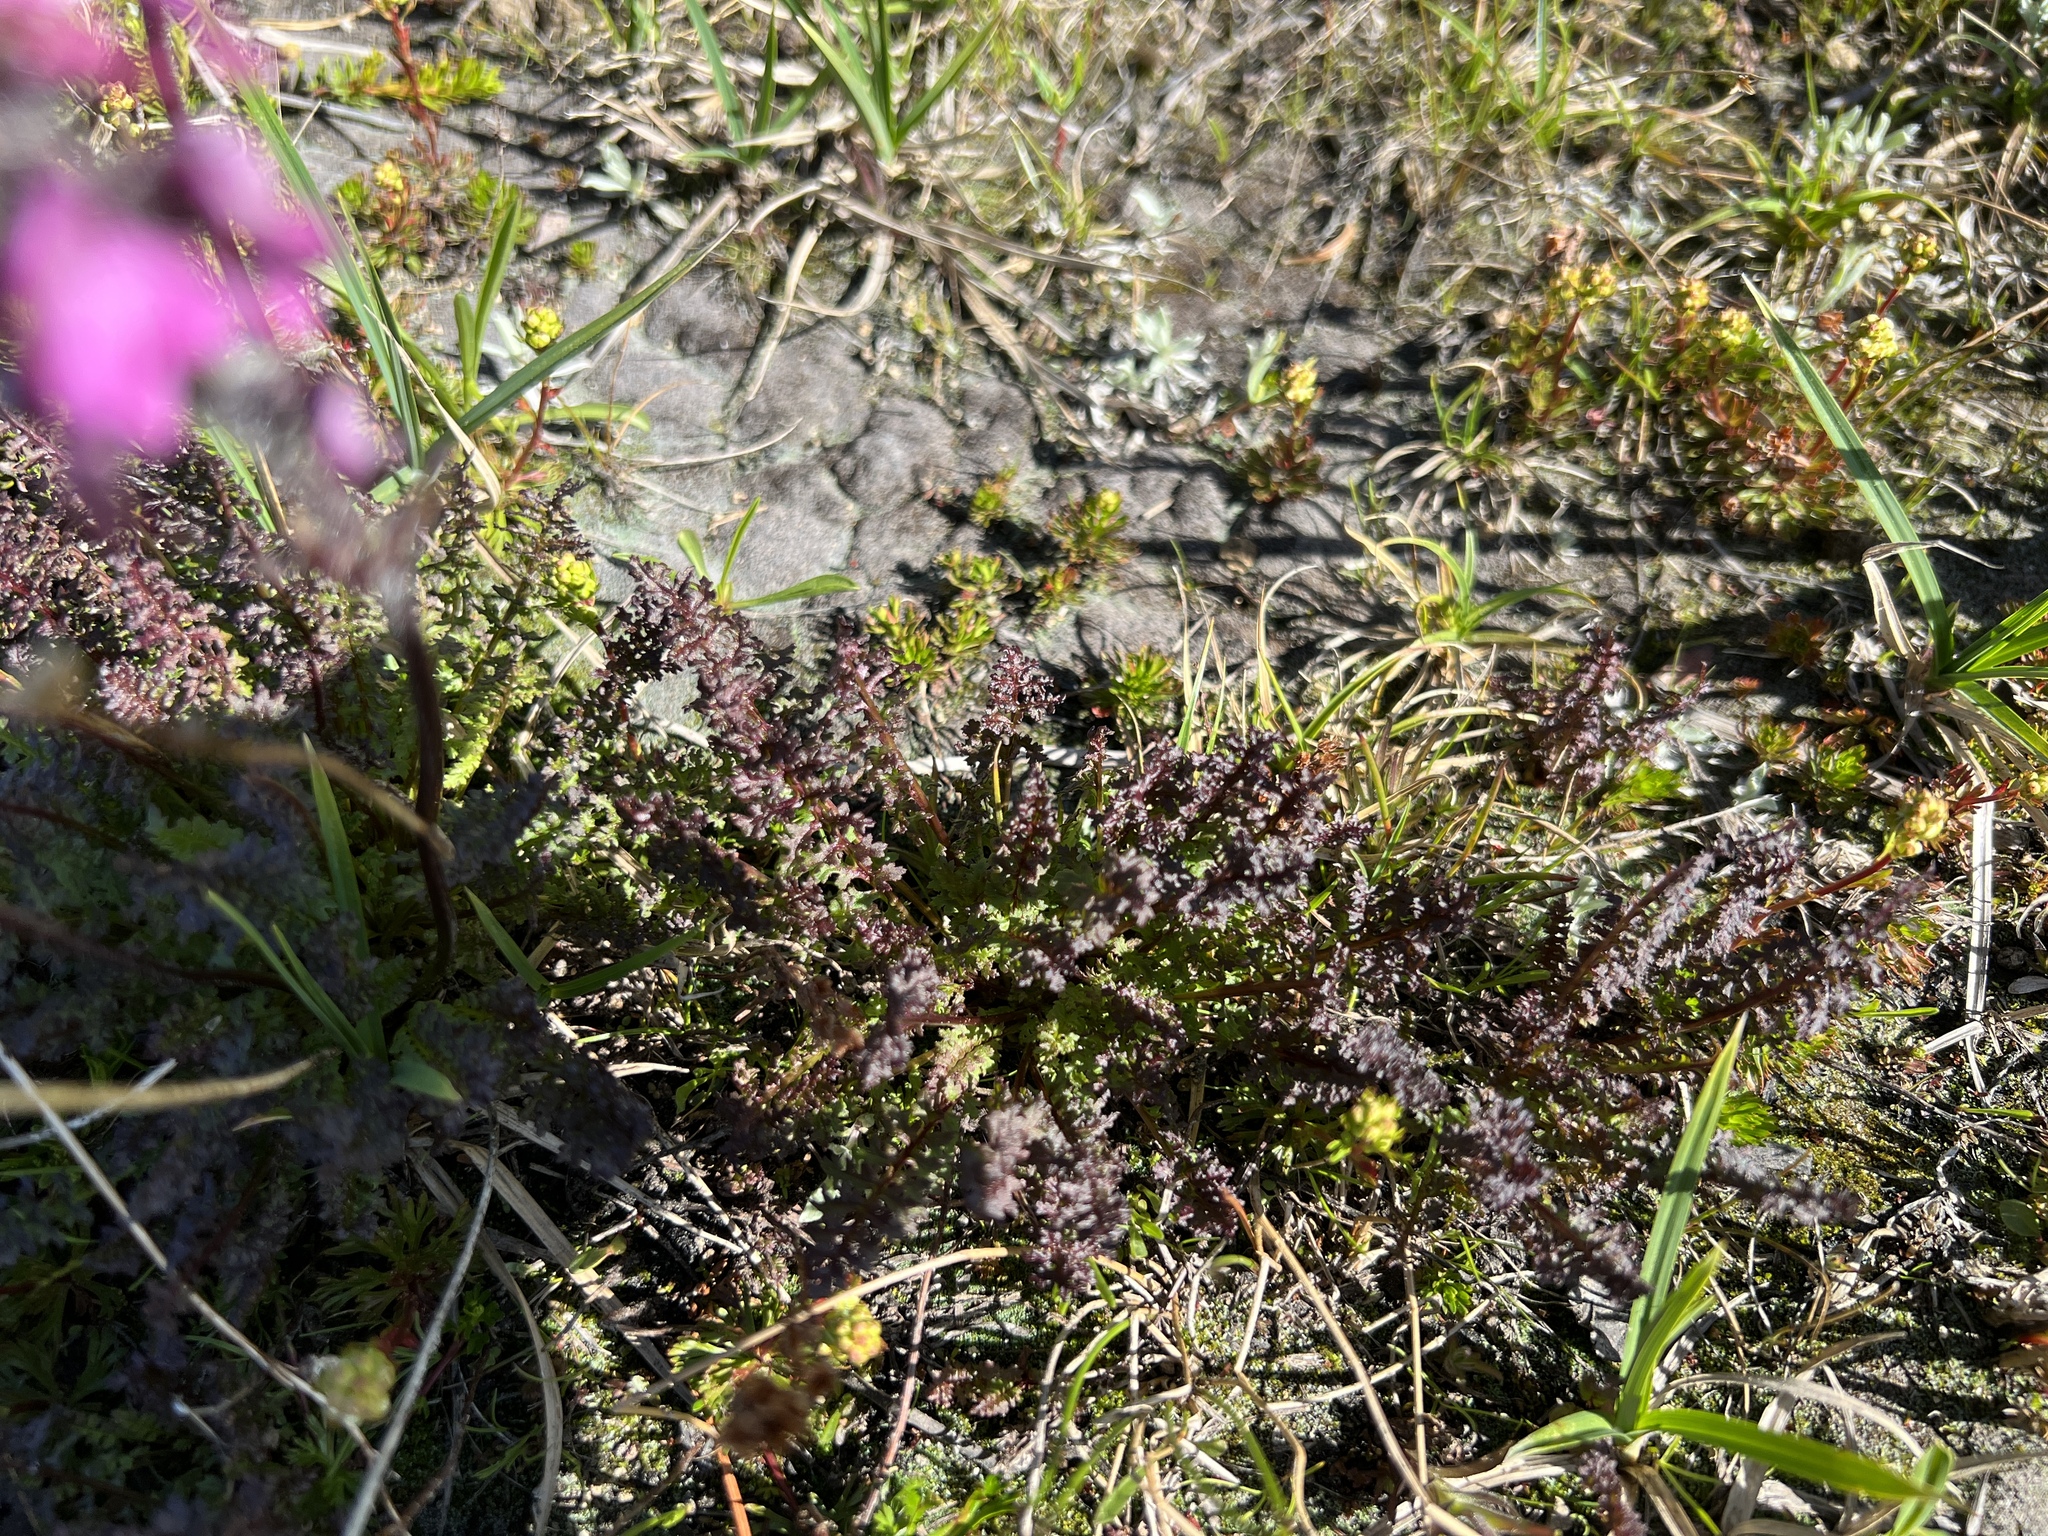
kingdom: Plantae
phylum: Tracheophyta
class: Magnoliopsida
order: Lamiales
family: Orobanchaceae
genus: Pedicularis
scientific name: Pedicularis ornithorhynchos
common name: Bird's-beak lousewort
